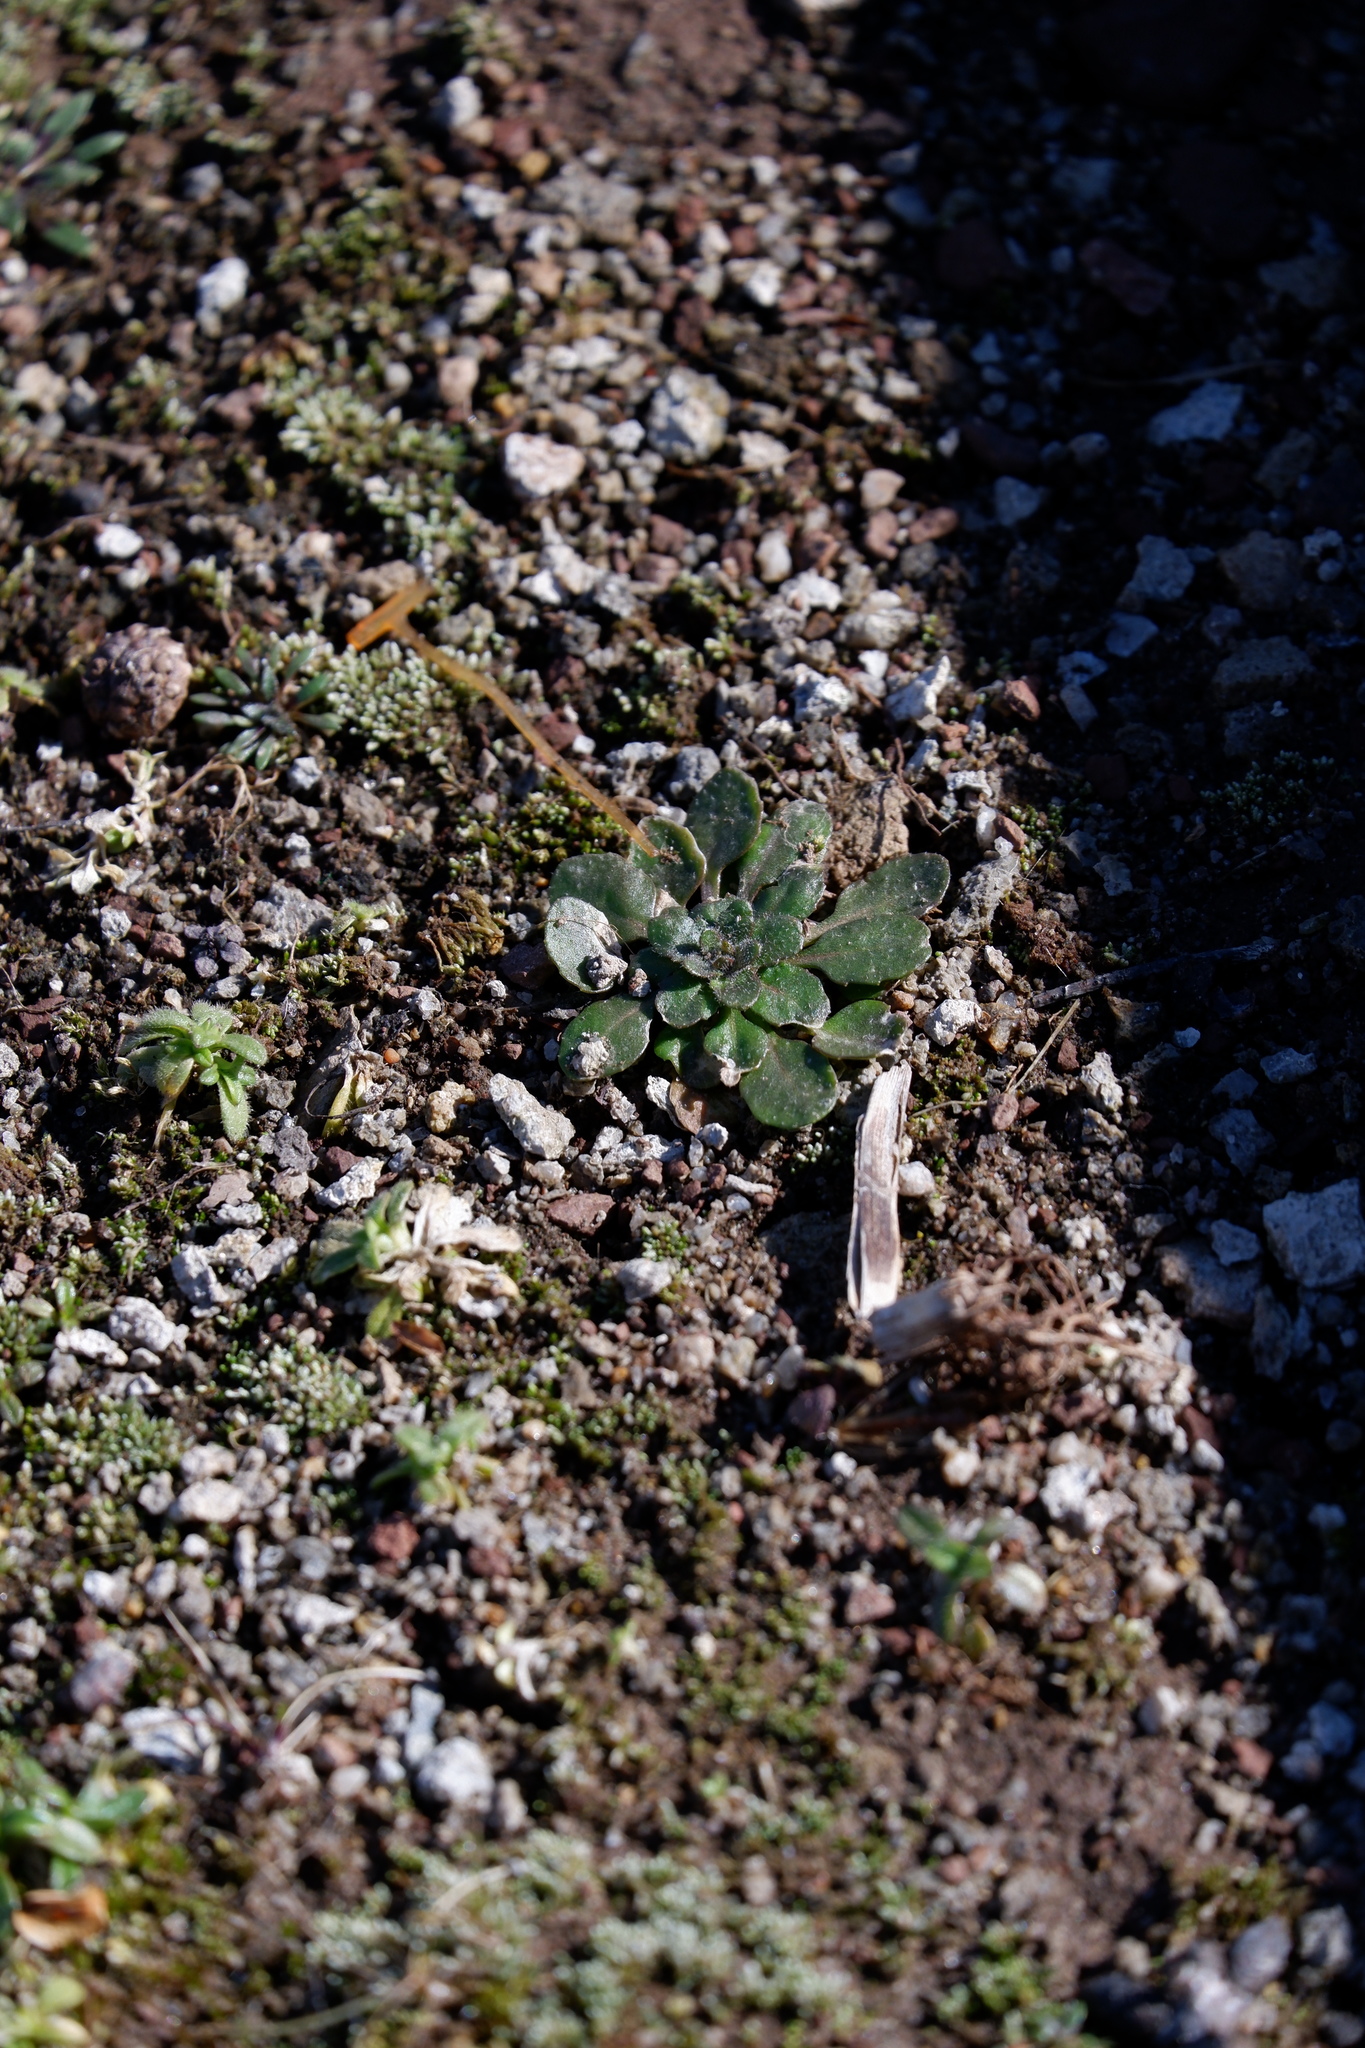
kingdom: Plantae
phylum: Bryophyta
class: Bryopsida
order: Bryales
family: Bryaceae
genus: Bryum
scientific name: Bryum argenteum
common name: Silver-moss
